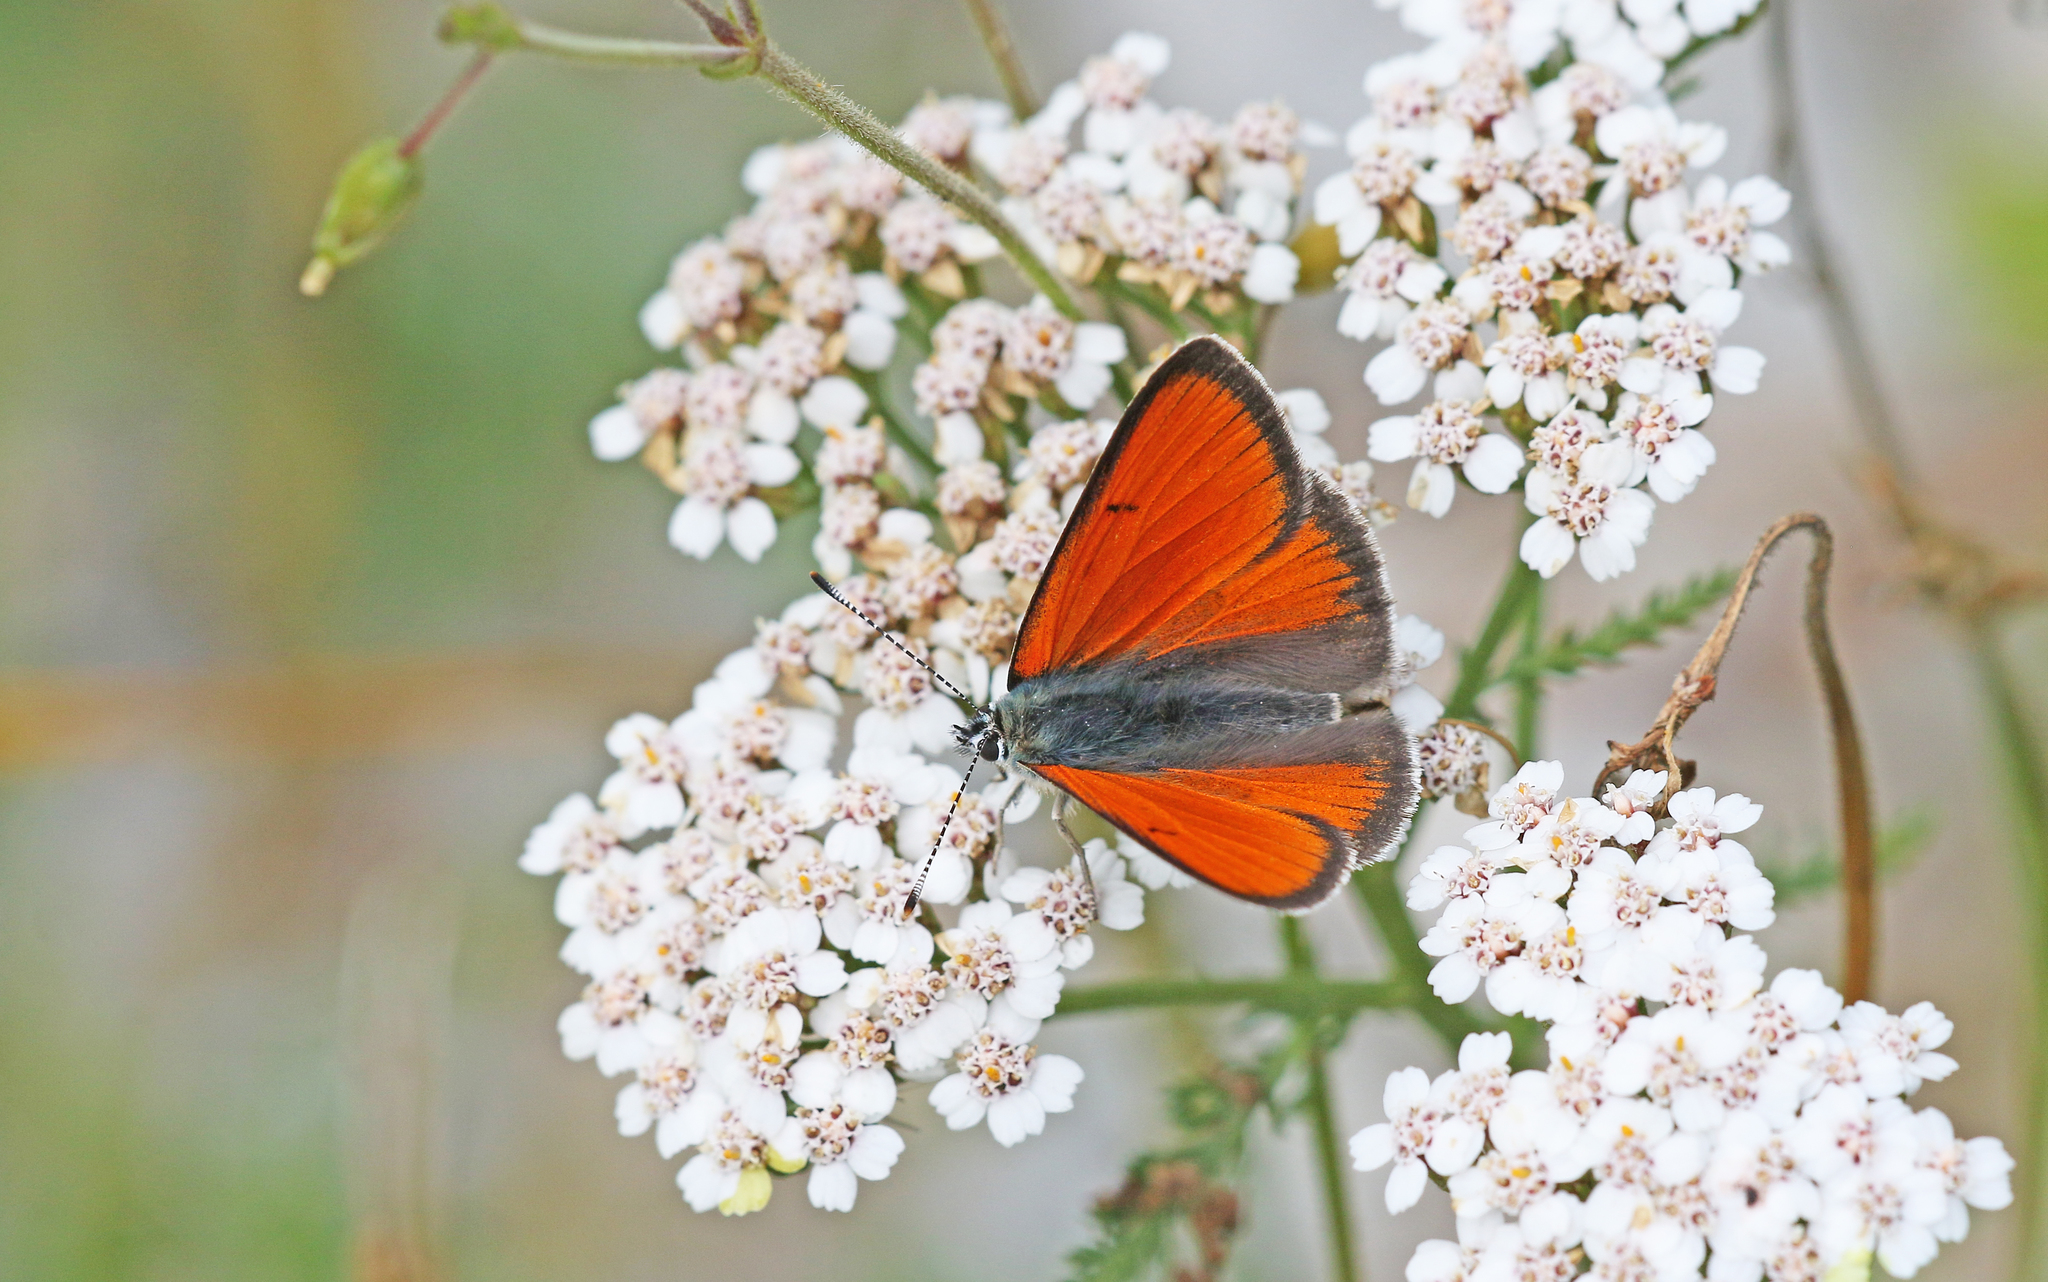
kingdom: Animalia
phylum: Arthropoda
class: Insecta
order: Lepidoptera
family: Lycaenidae
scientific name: Lycaenidae
